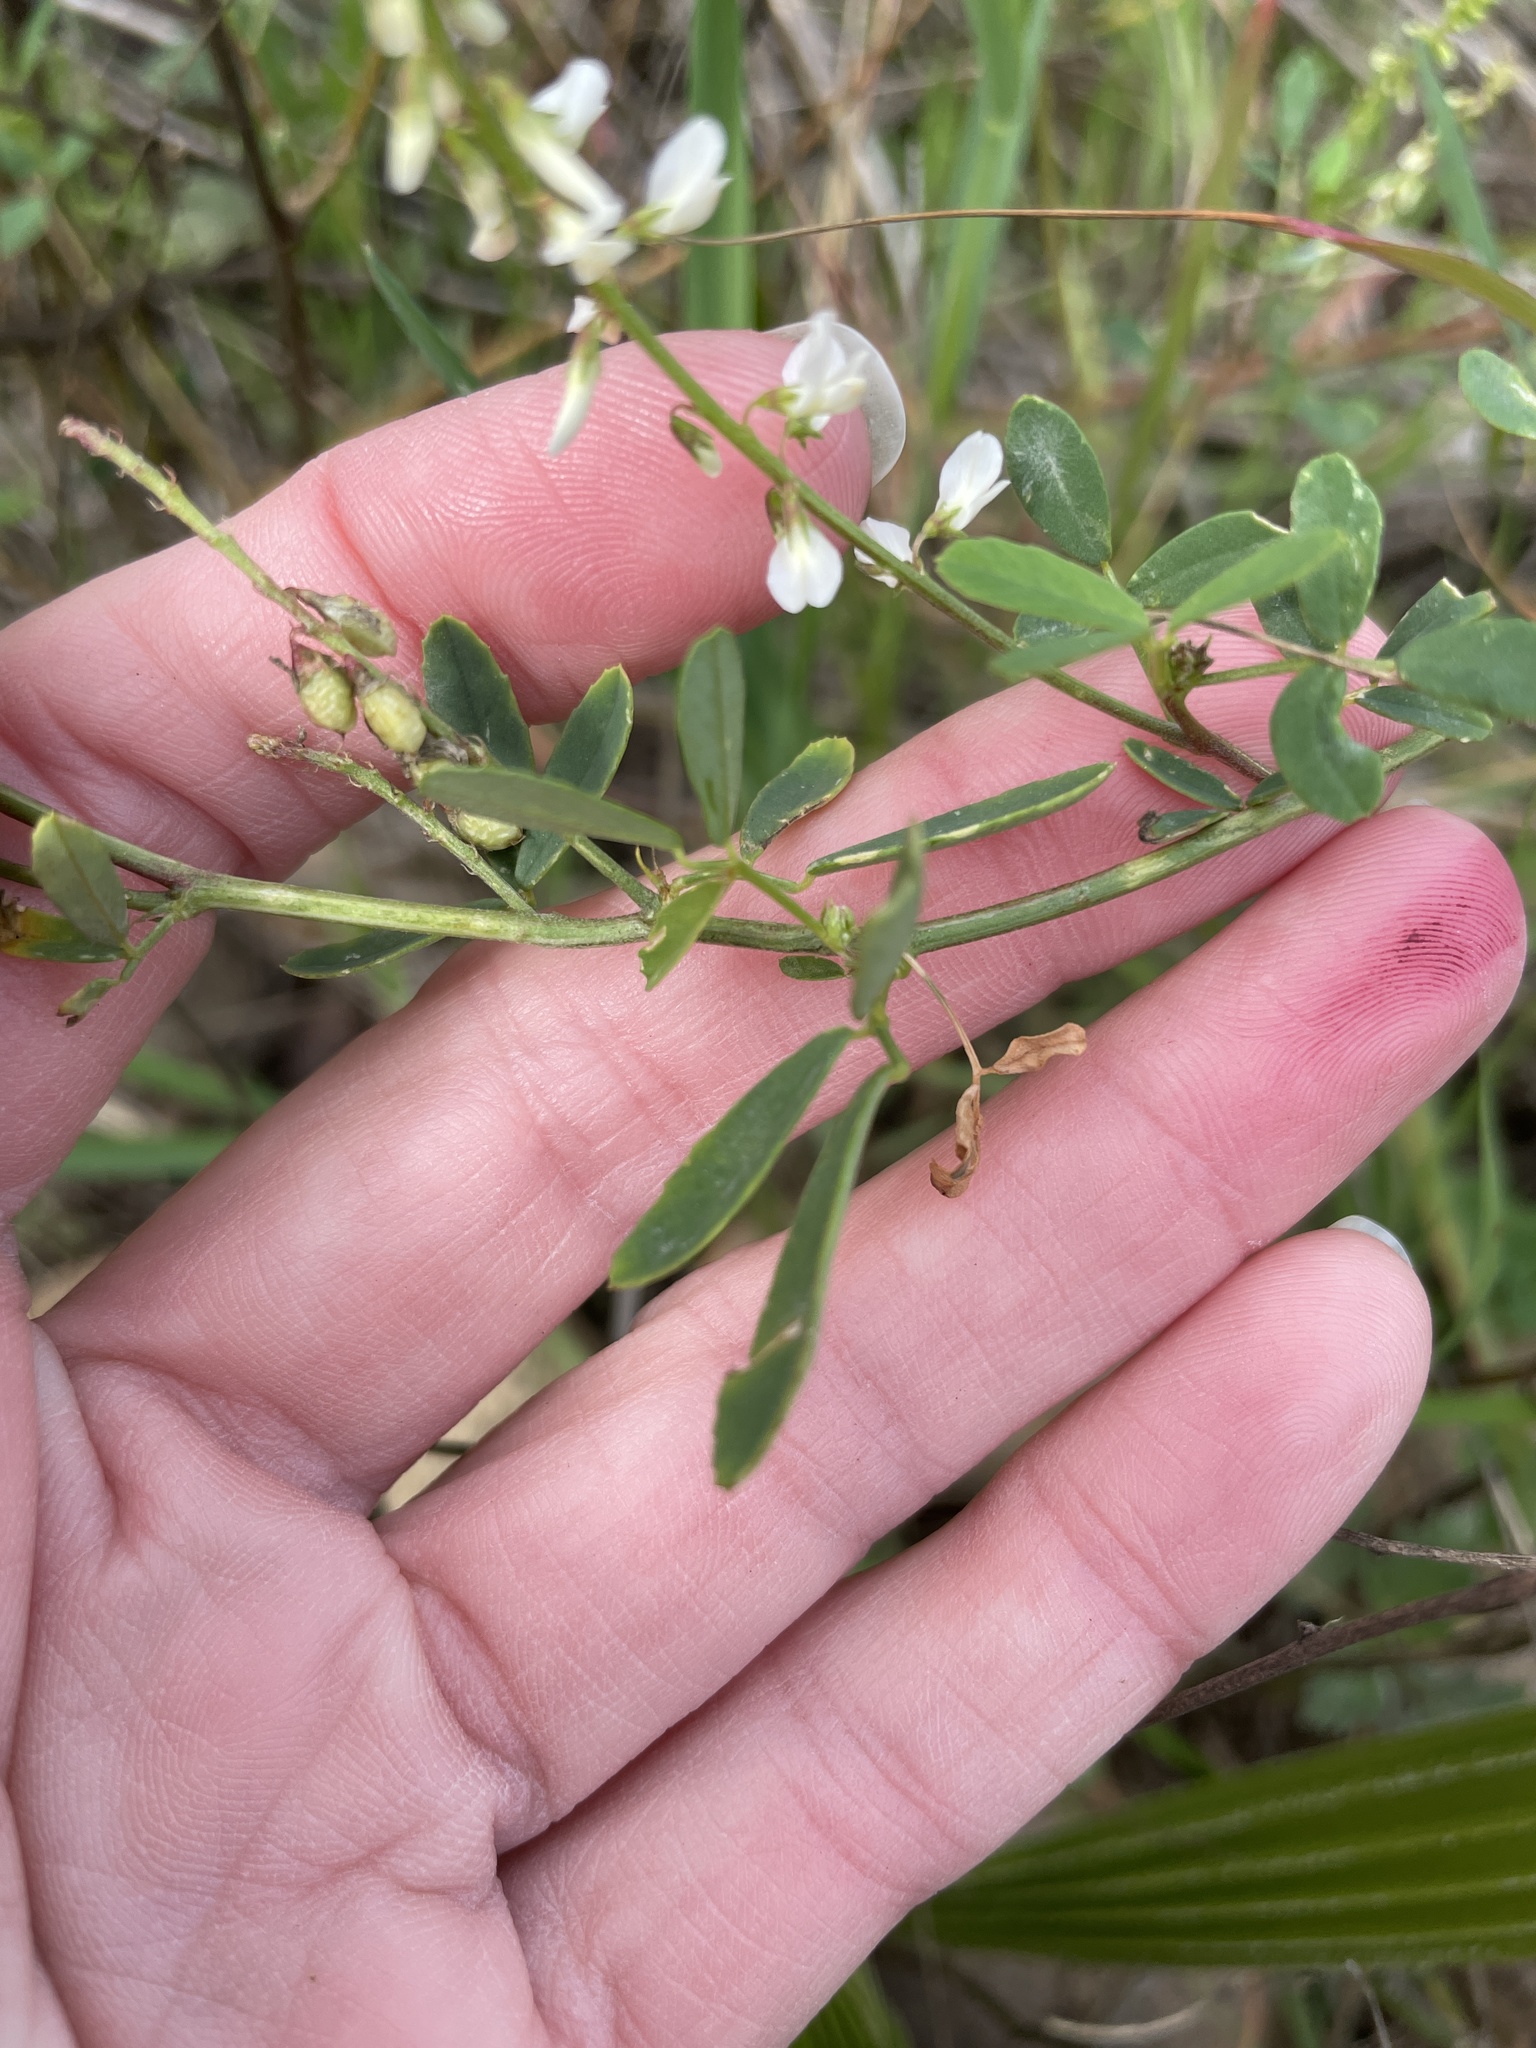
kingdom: Plantae
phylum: Tracheophyta
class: Magnoliopsida
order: Fabales
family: Fabaceae
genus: Melilotus
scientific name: Melilotus albus
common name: White melilot
